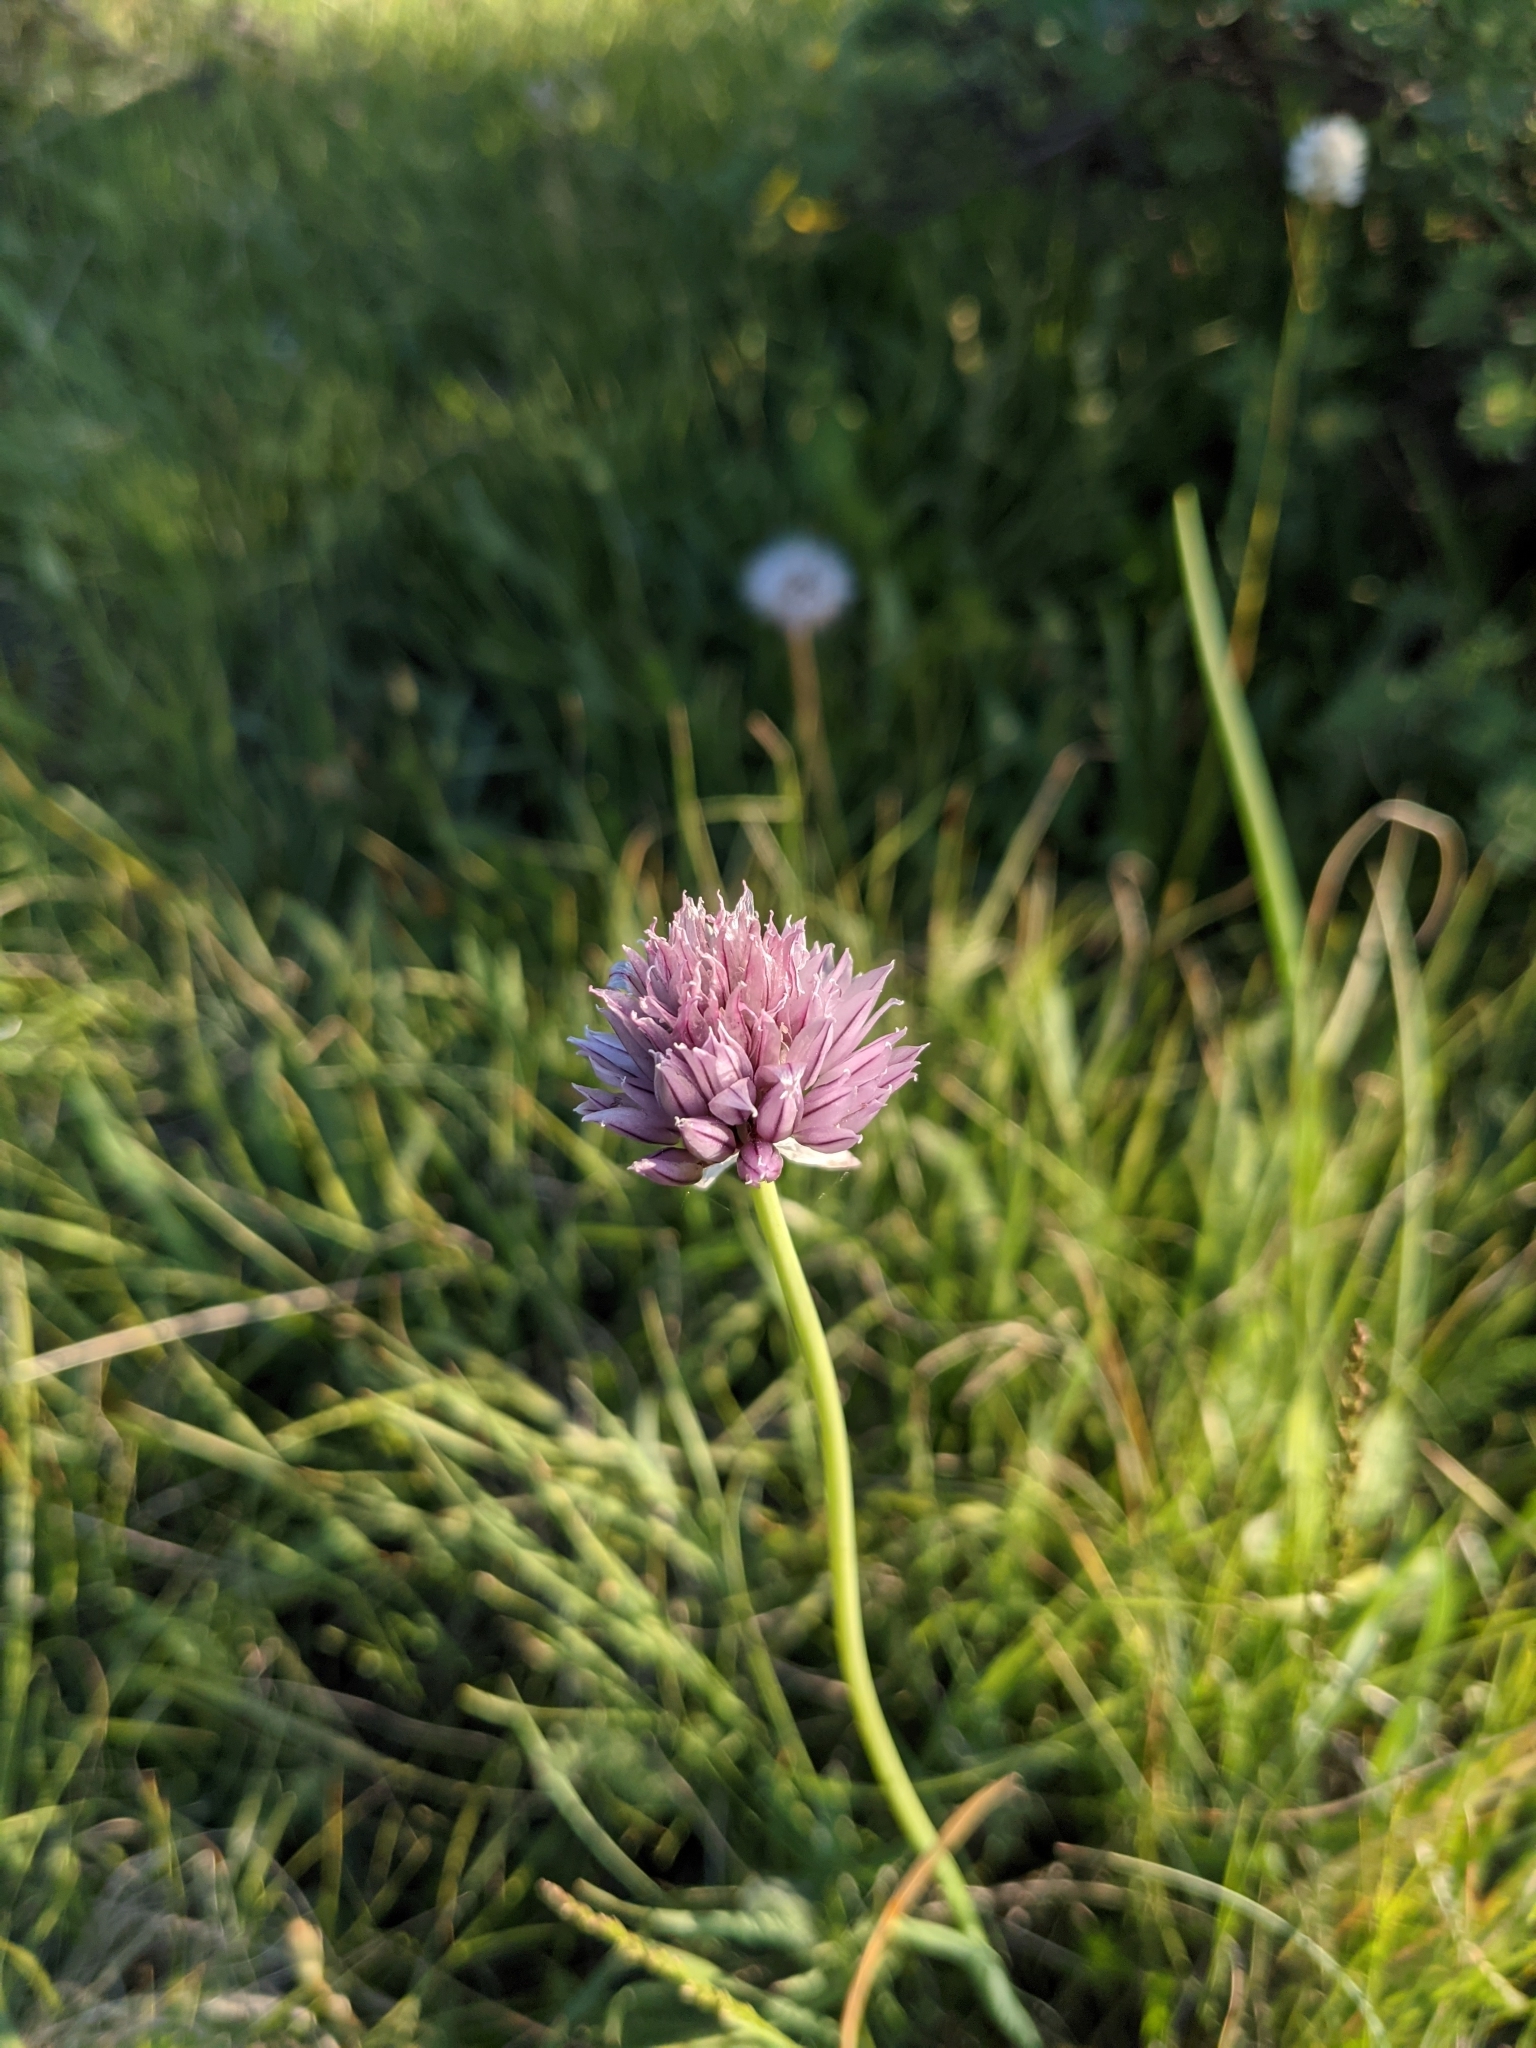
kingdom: Plantae
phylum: Tracheophyta
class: Liliopsida
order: Asparagales
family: Amaryllidaceae
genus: Allium
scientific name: Allium schoenoprasum
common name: Chives
